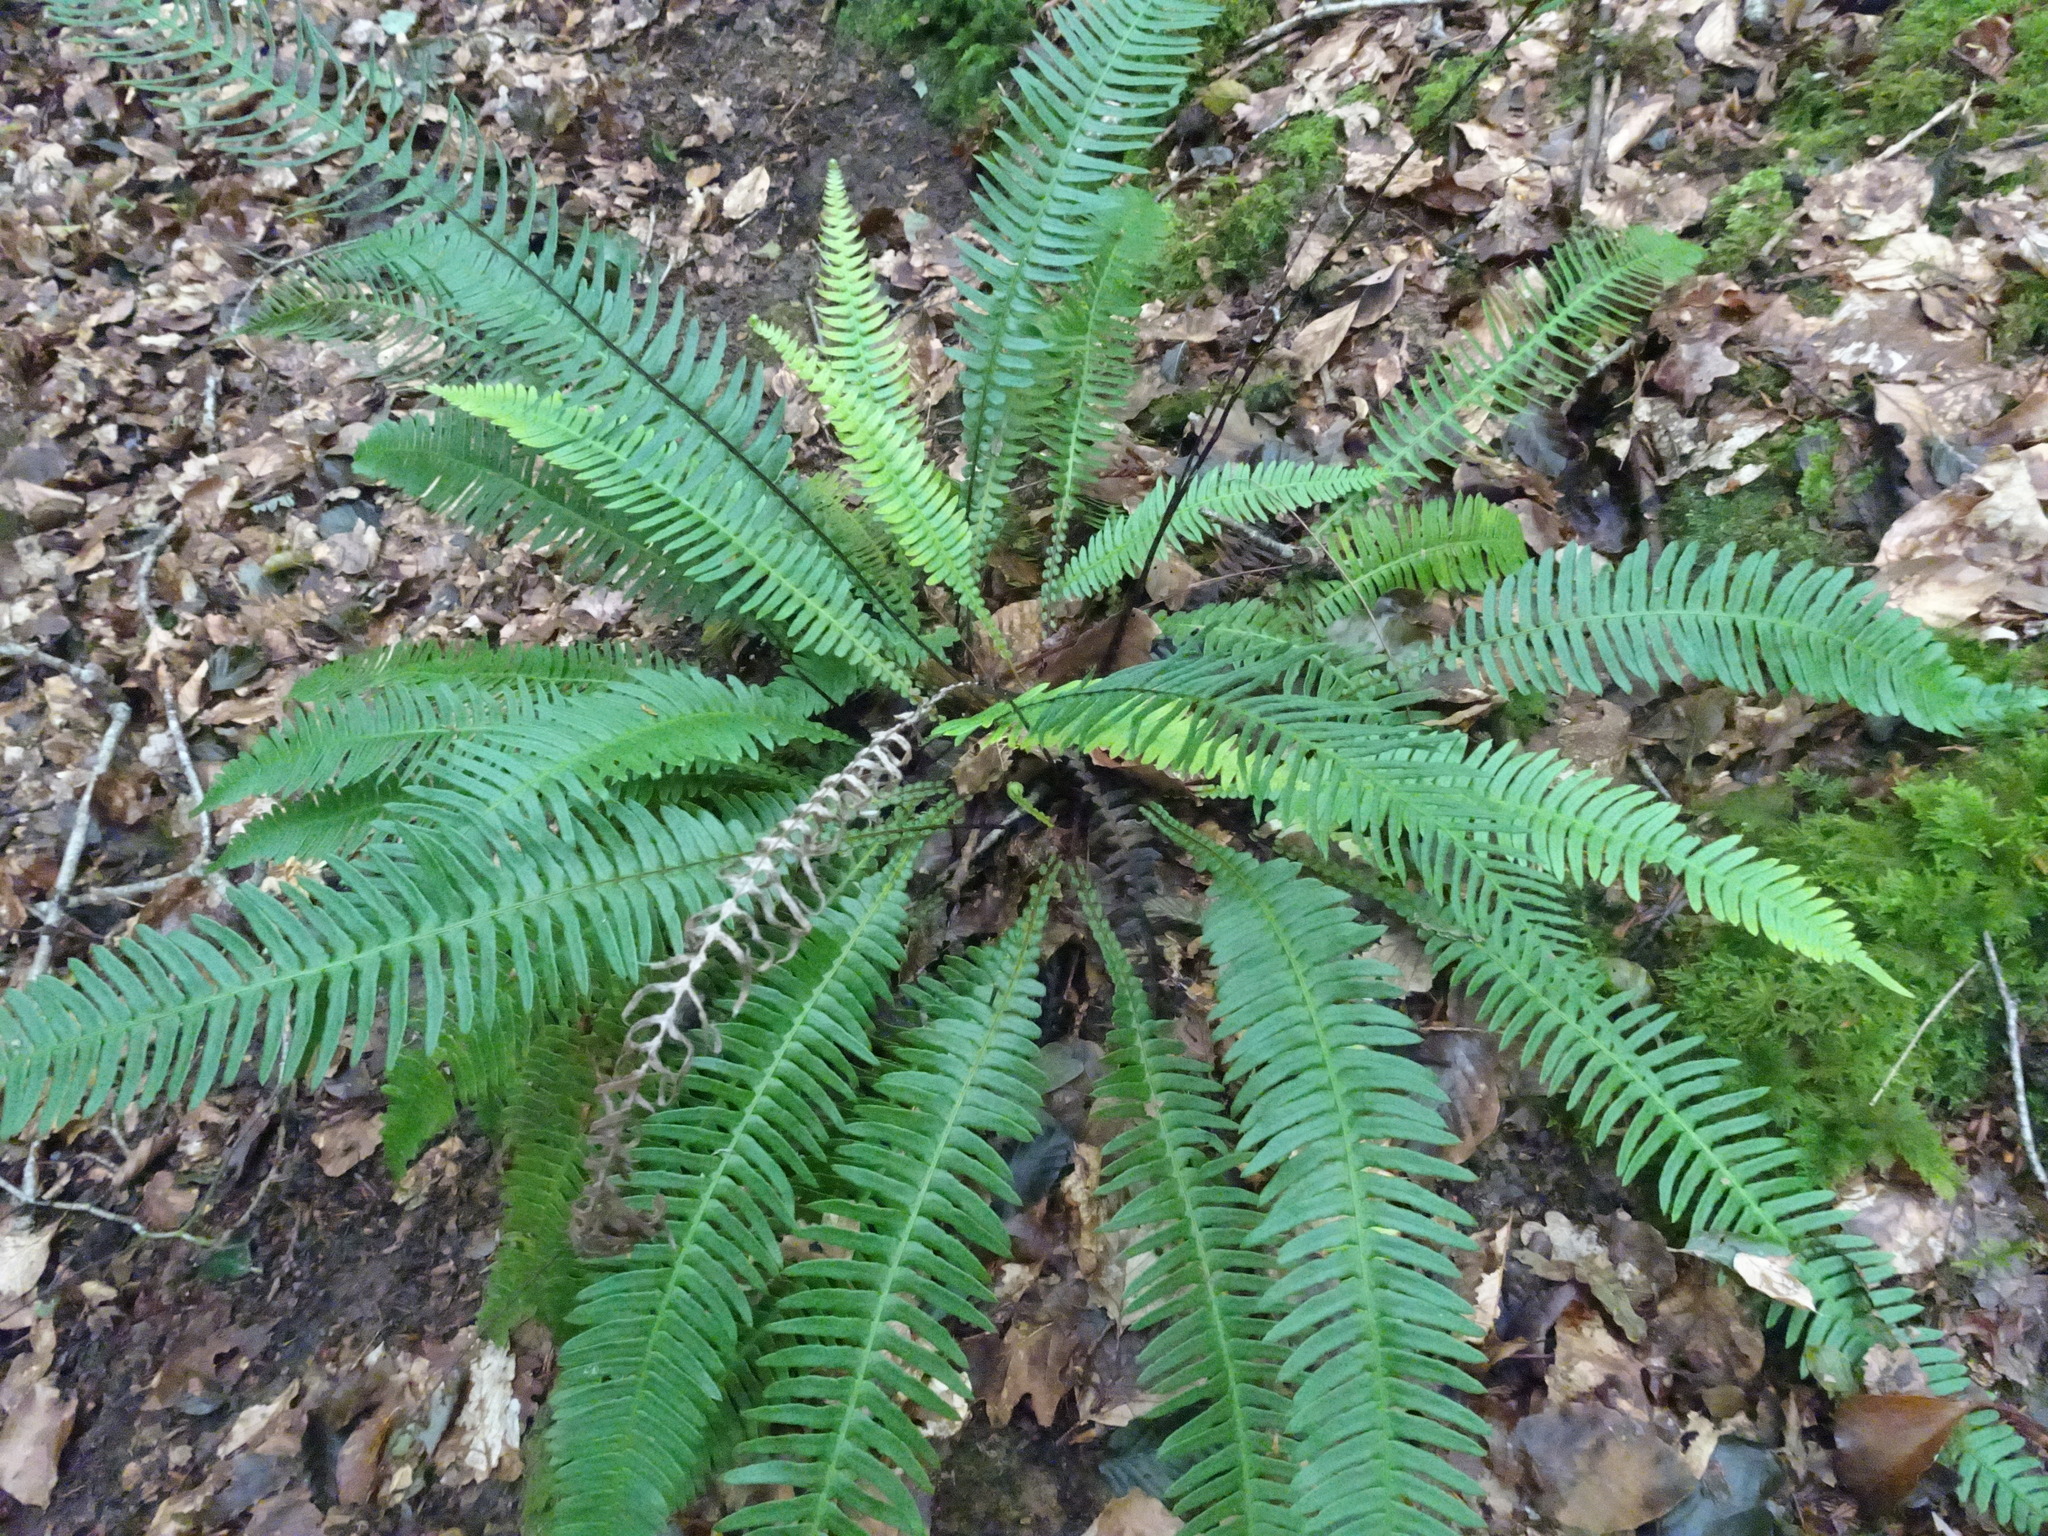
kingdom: Plantae
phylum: Tracheophyta
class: Polypodiopsida
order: Polypodiales
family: Blechnaceae
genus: Struthiopteris
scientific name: Struthiopteris spicant
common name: Deer fern
